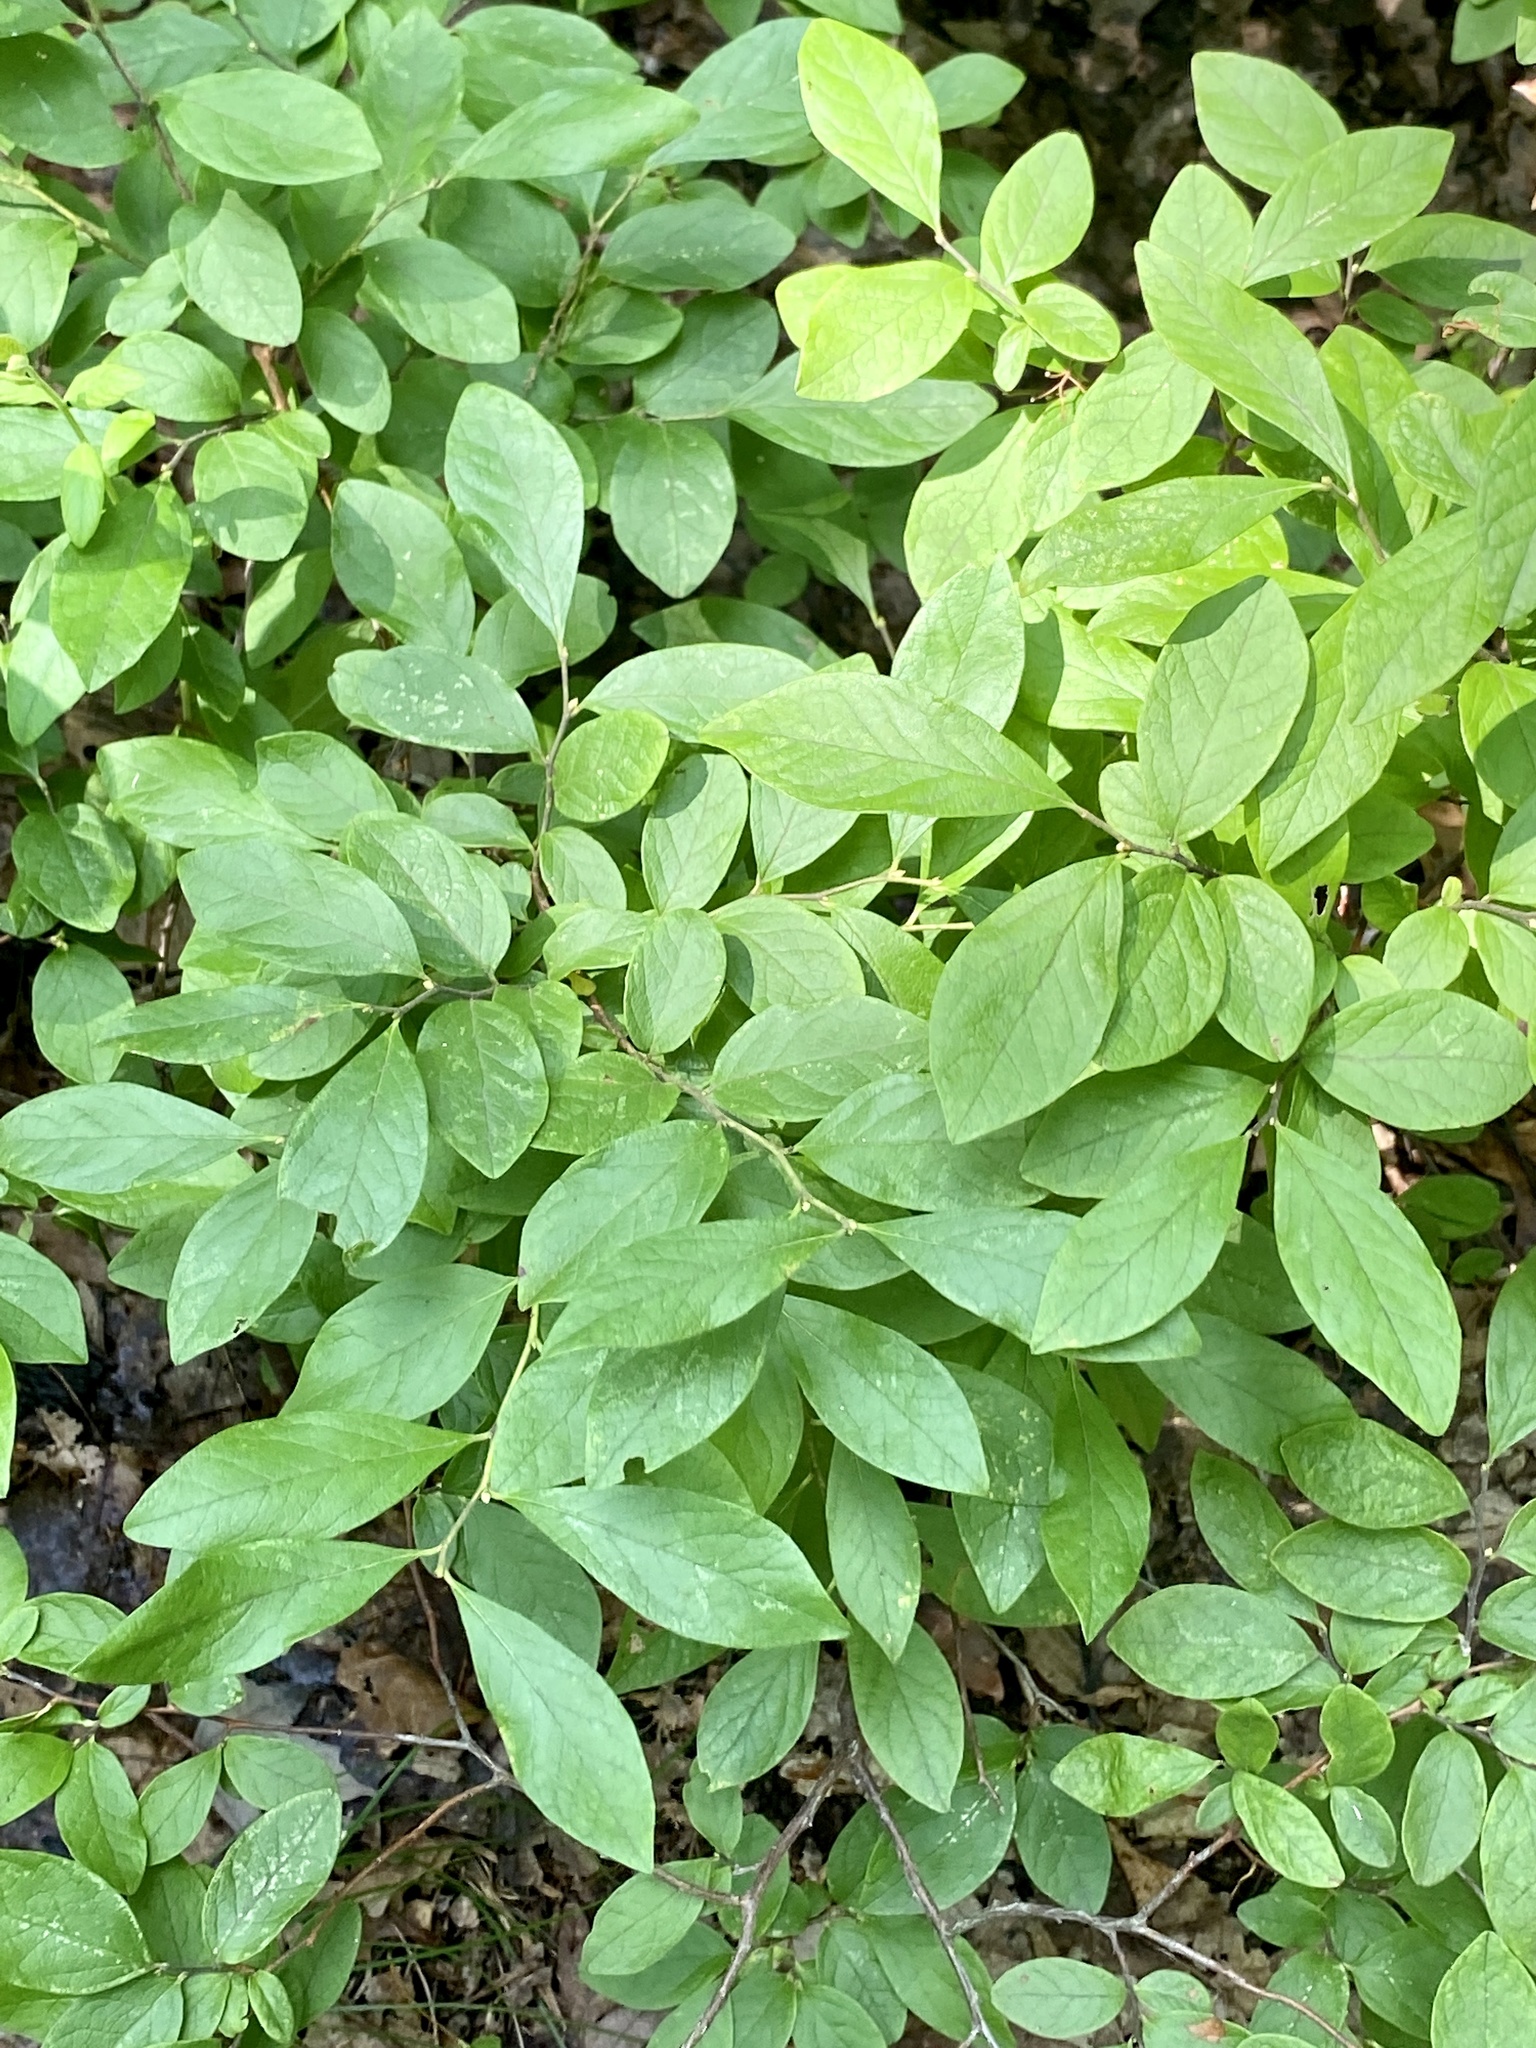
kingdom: Plantae
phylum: Tracheophyta
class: Magnoliopsida
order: Ericales
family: Ericaceae
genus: Gaylussacia
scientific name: Gaylussacia baccata
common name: Black huckleberry
